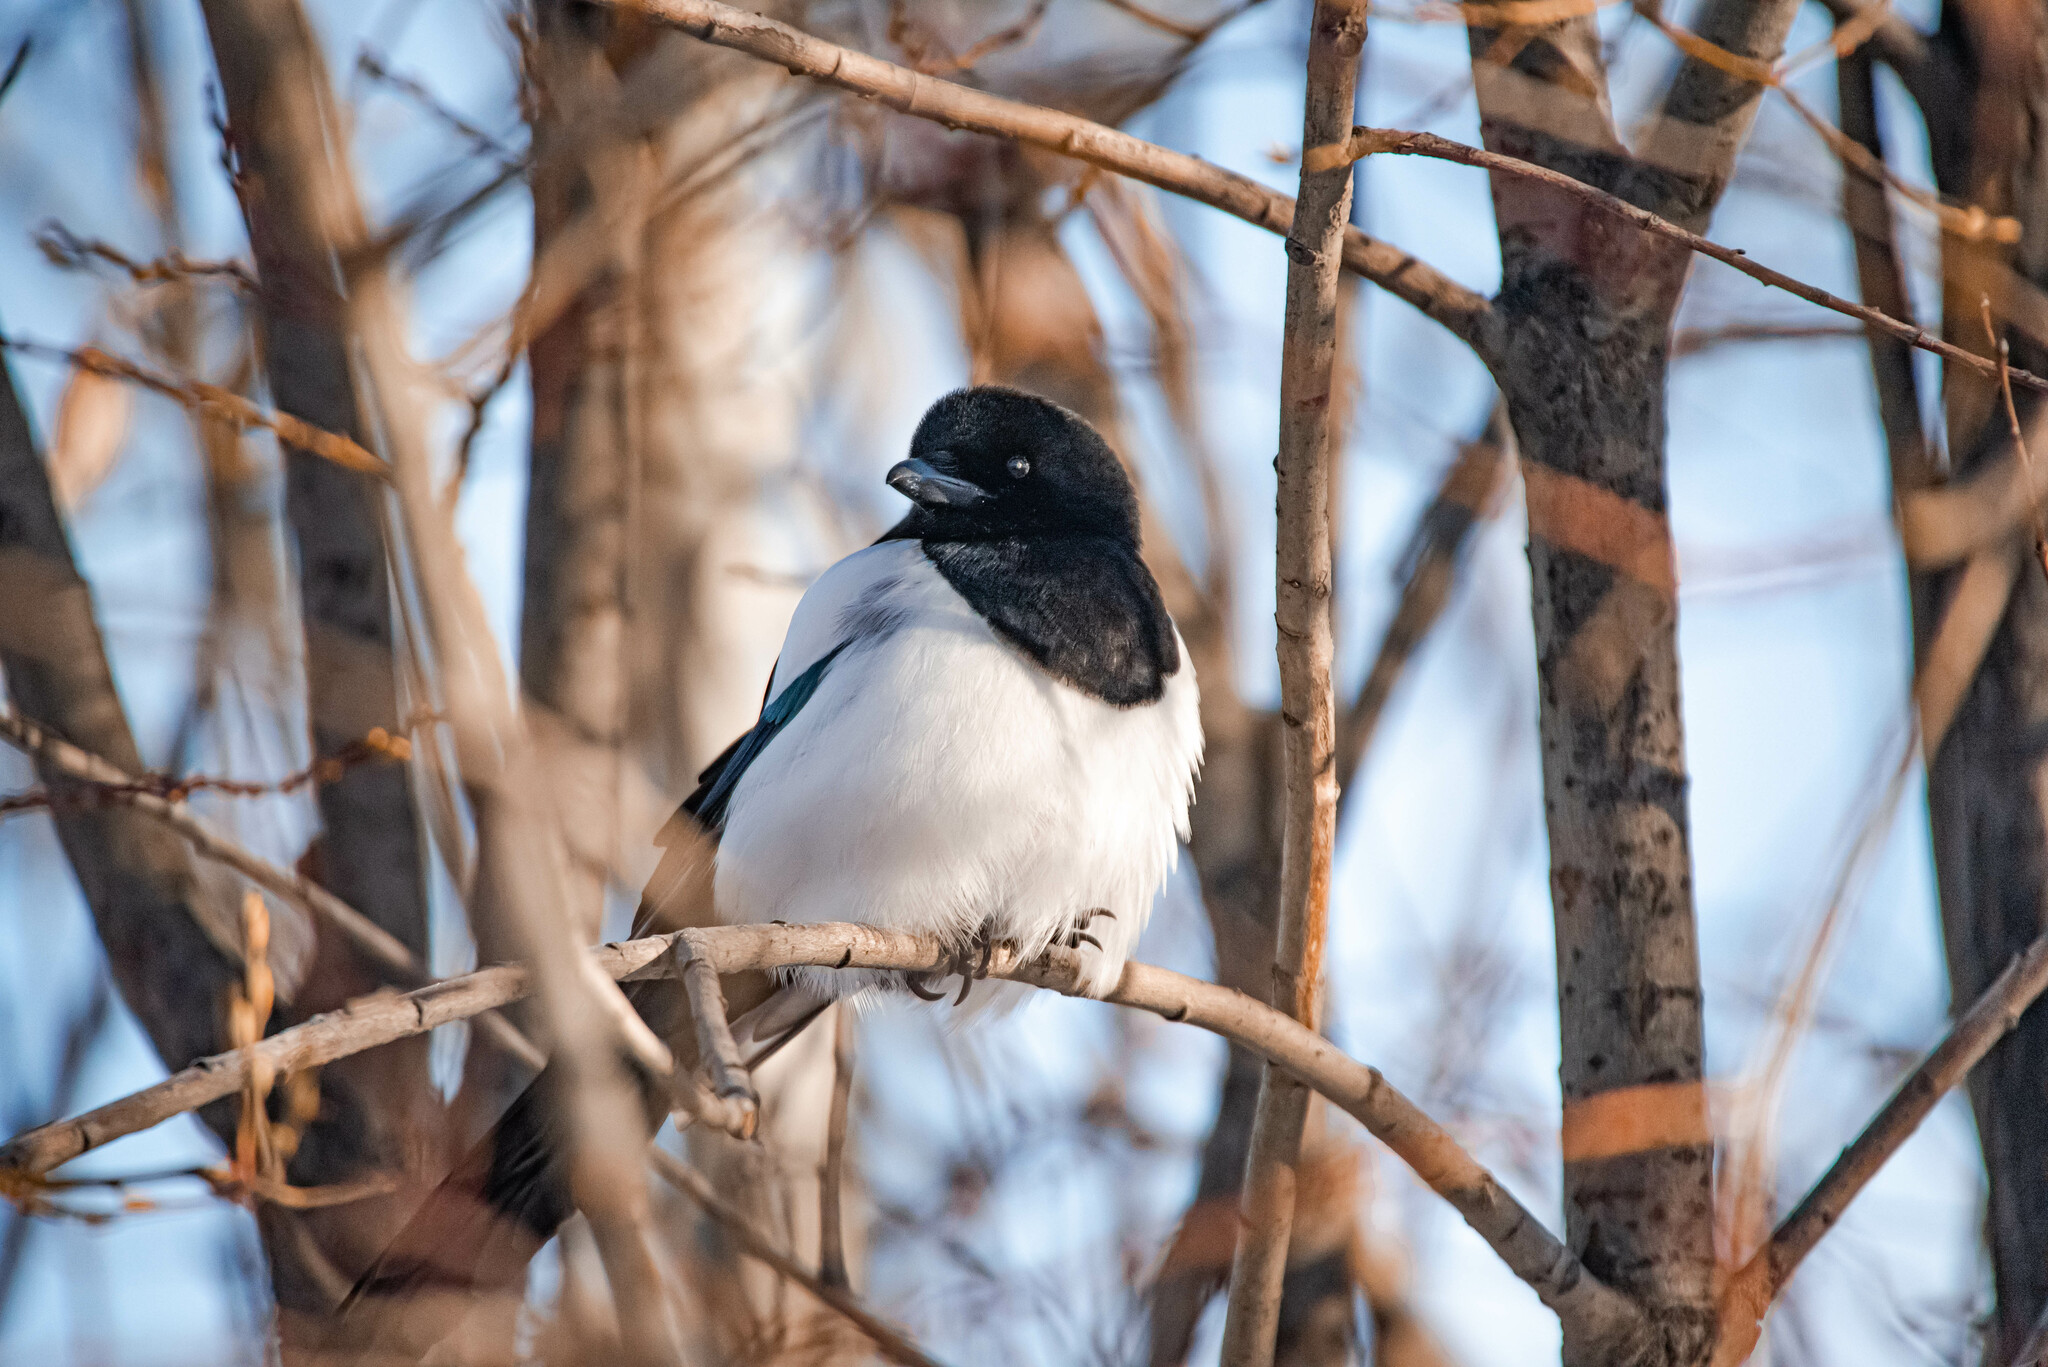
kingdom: Animalia
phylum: Chordata
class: Aves
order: Passeriformes
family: Corvidae
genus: Pica
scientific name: Pica pica
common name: Eurasian magpie
